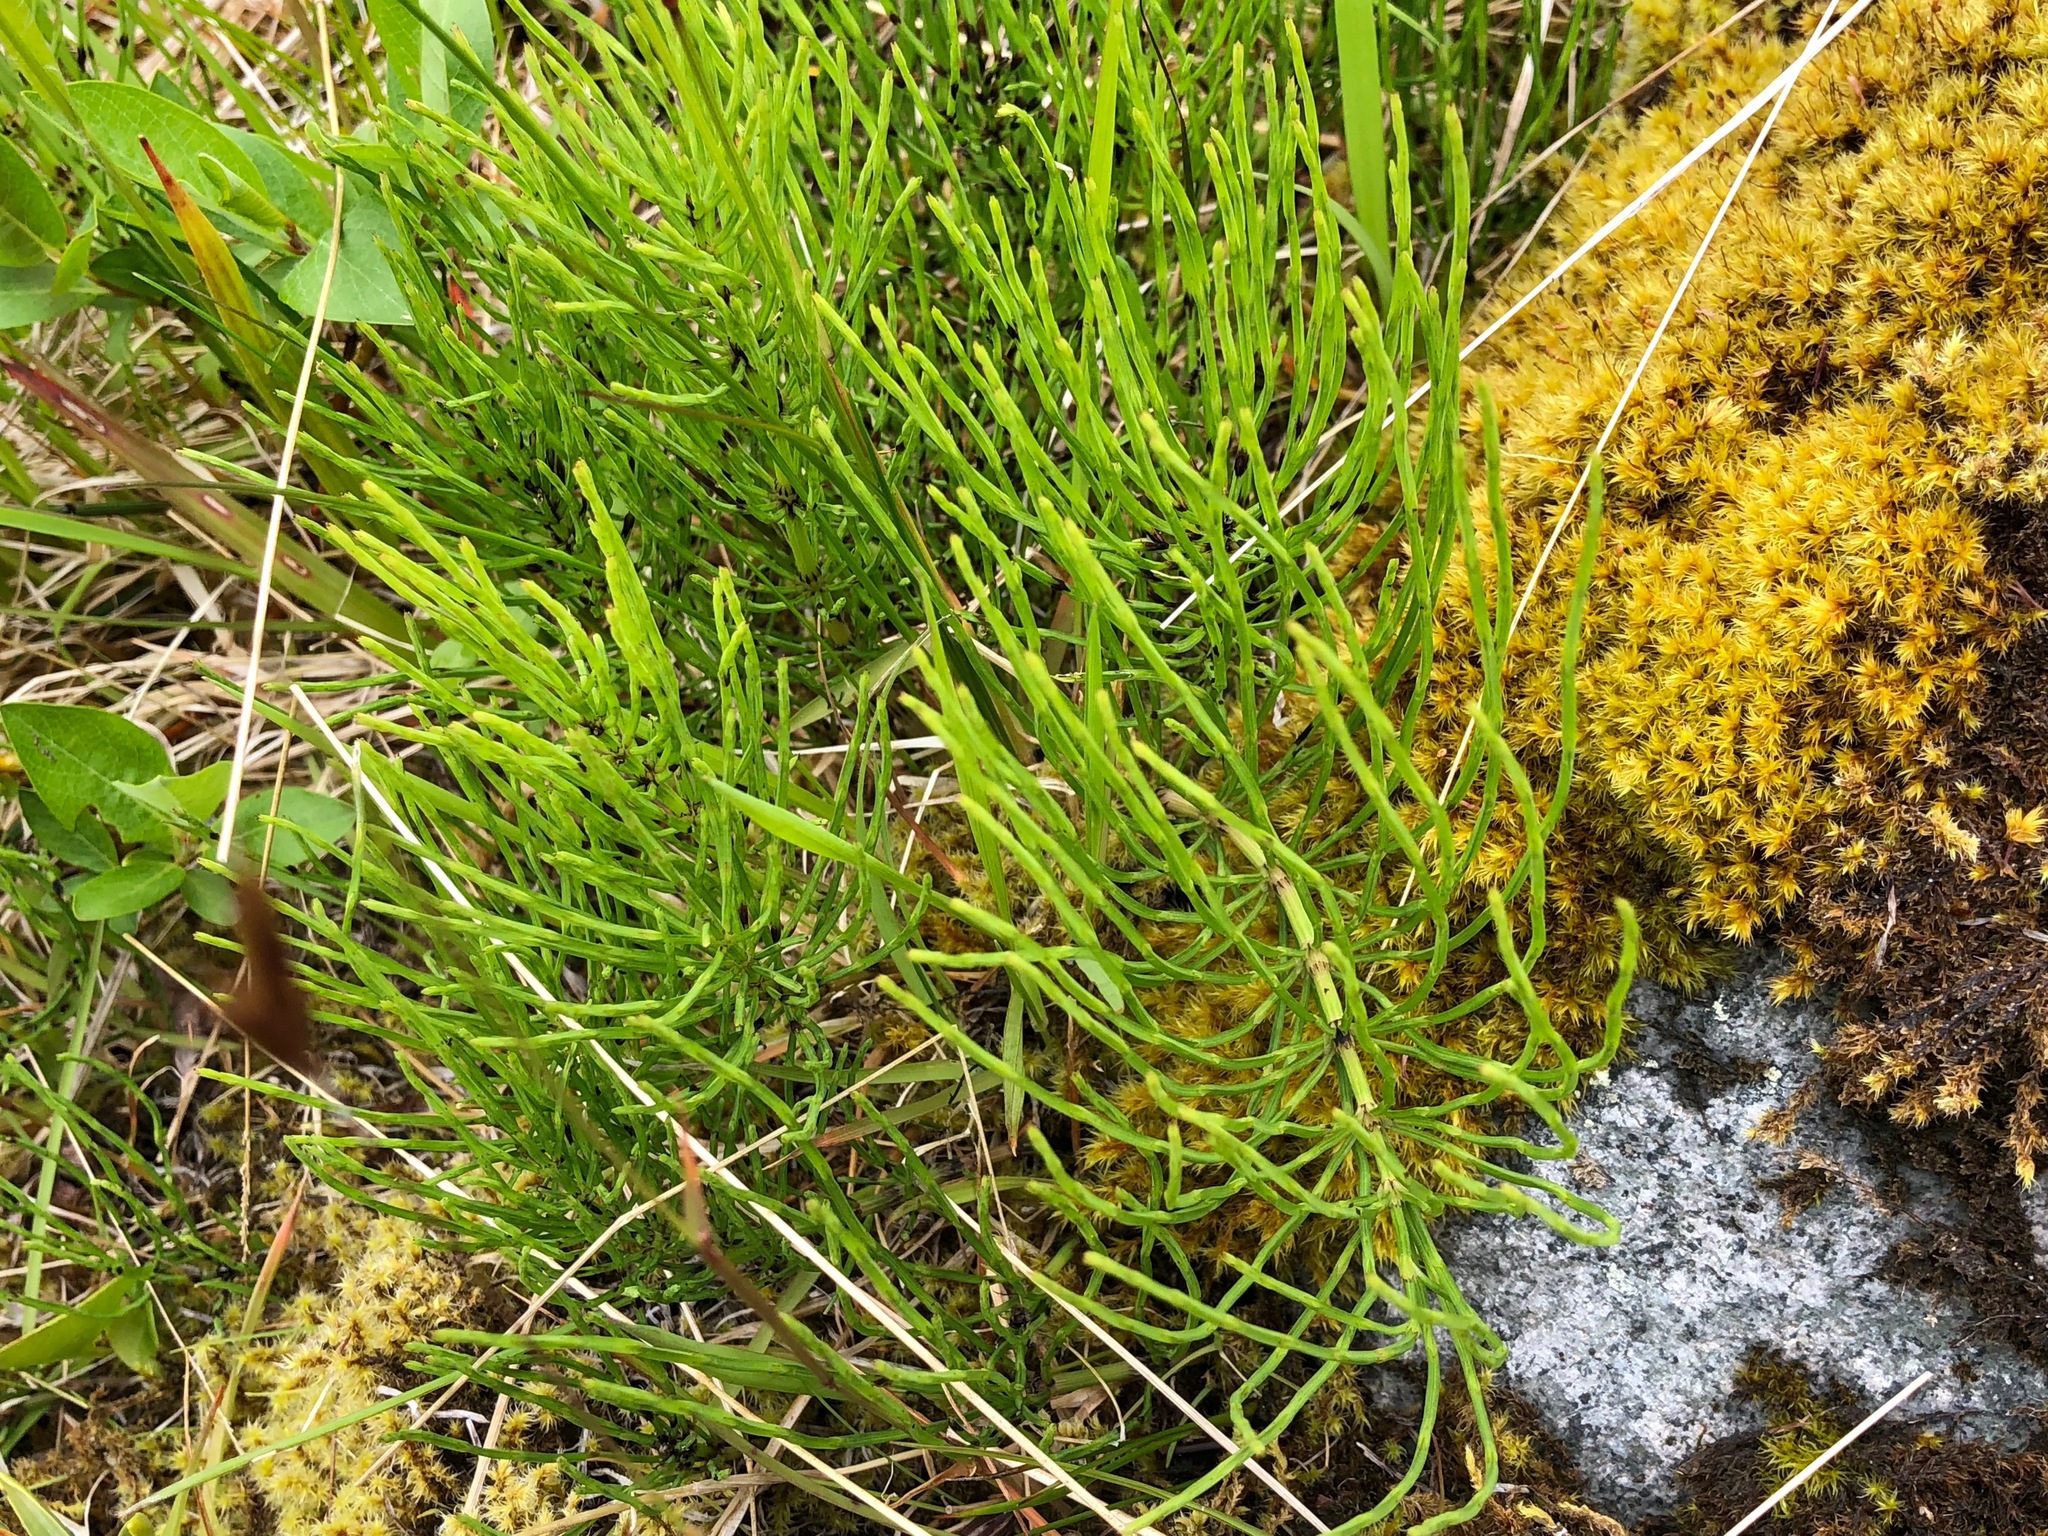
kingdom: Plantae
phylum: Tracheophyta
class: Polypodiopsida
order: Equisetales
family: Equisetaceae
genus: Equisetum
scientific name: Equisetum arvense
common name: Field horsetail
